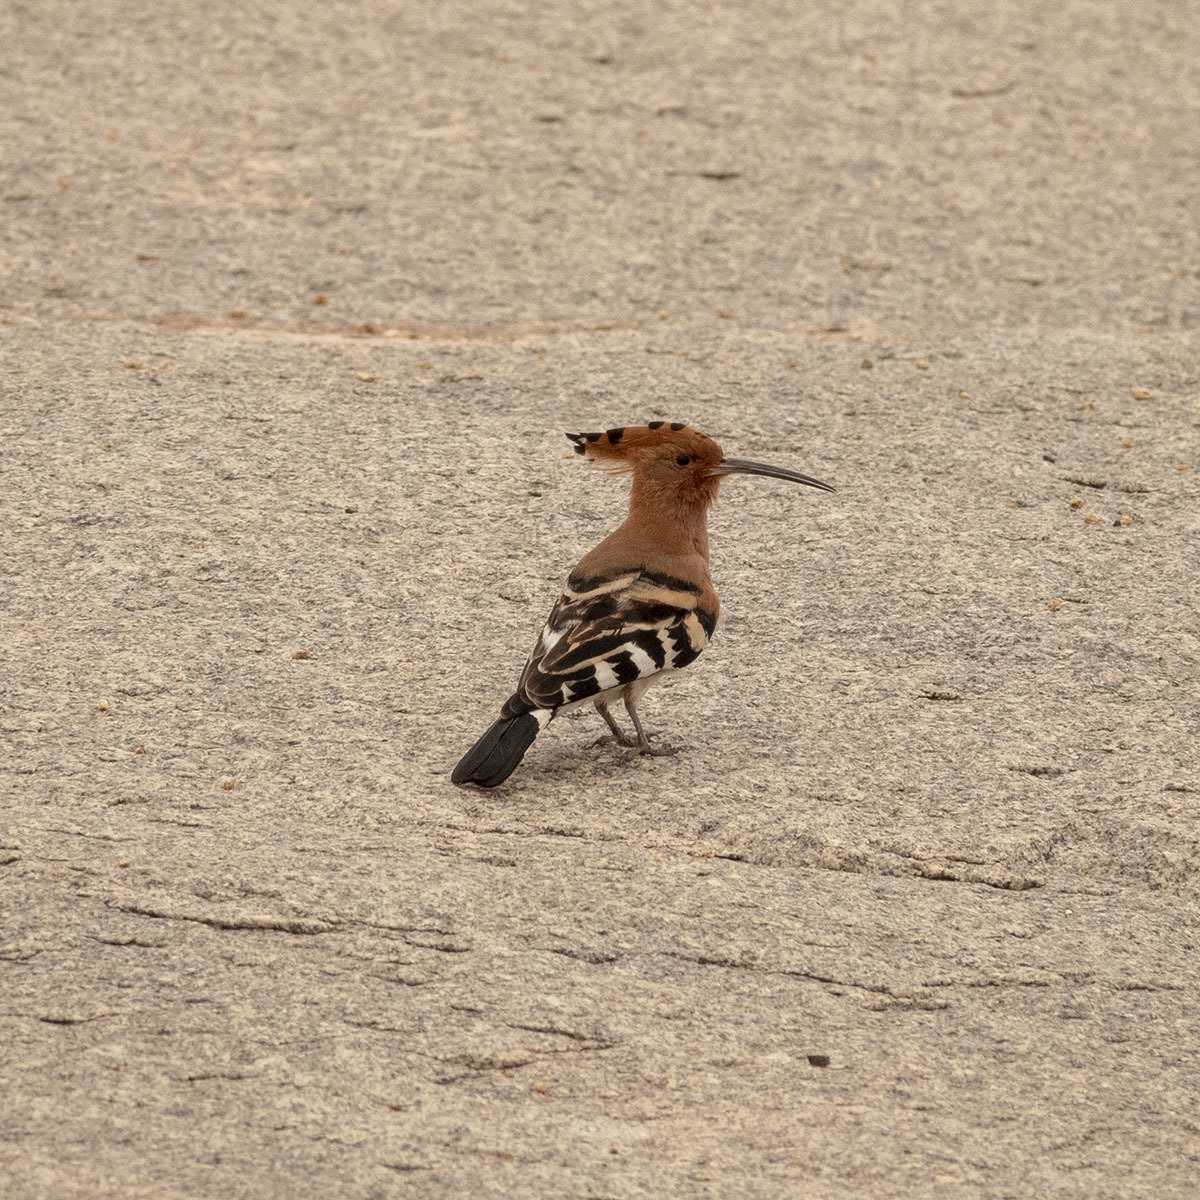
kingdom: Animalia
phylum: Chordata
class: Aves
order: Bucerotiformes
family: Upupidae
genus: Upupa
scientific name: Upupa epops
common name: Eurasian hoopoe
